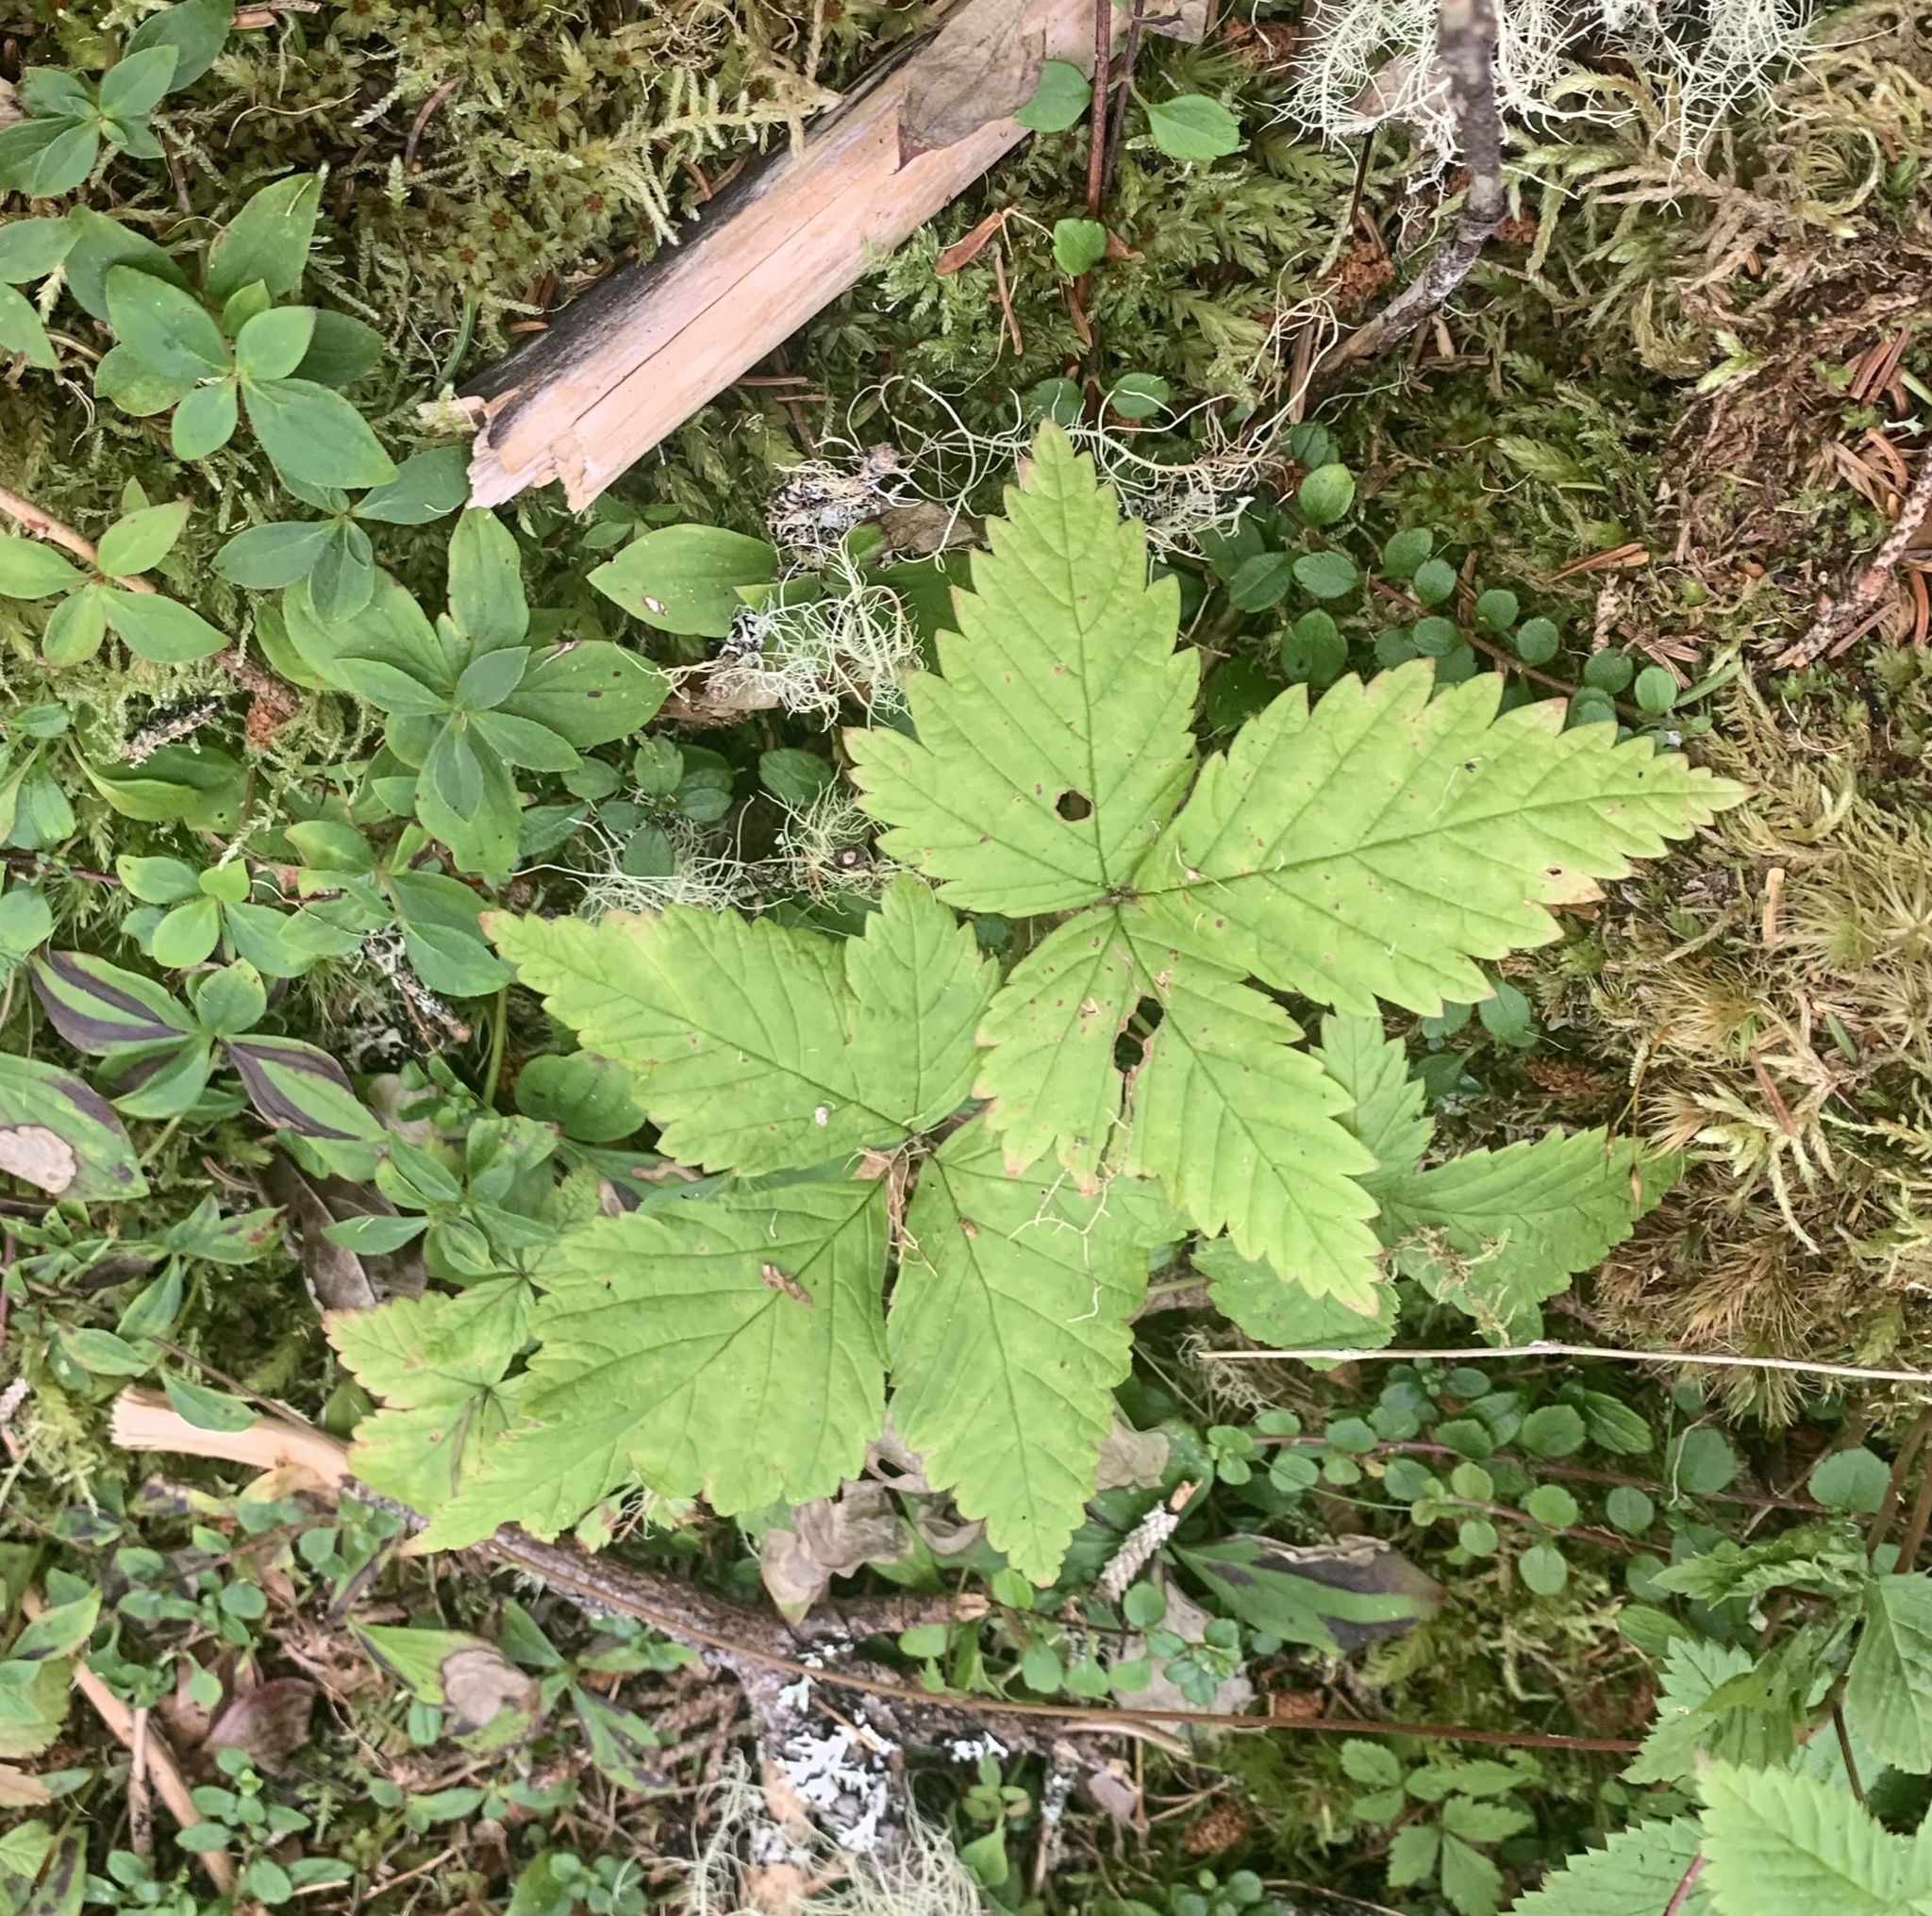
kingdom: Plantae
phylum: Tracheophyta
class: Magnoliopsida
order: Rosales
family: Rosaceae
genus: Rubus
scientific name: Rubus pubescens
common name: Dwarf raspberry
